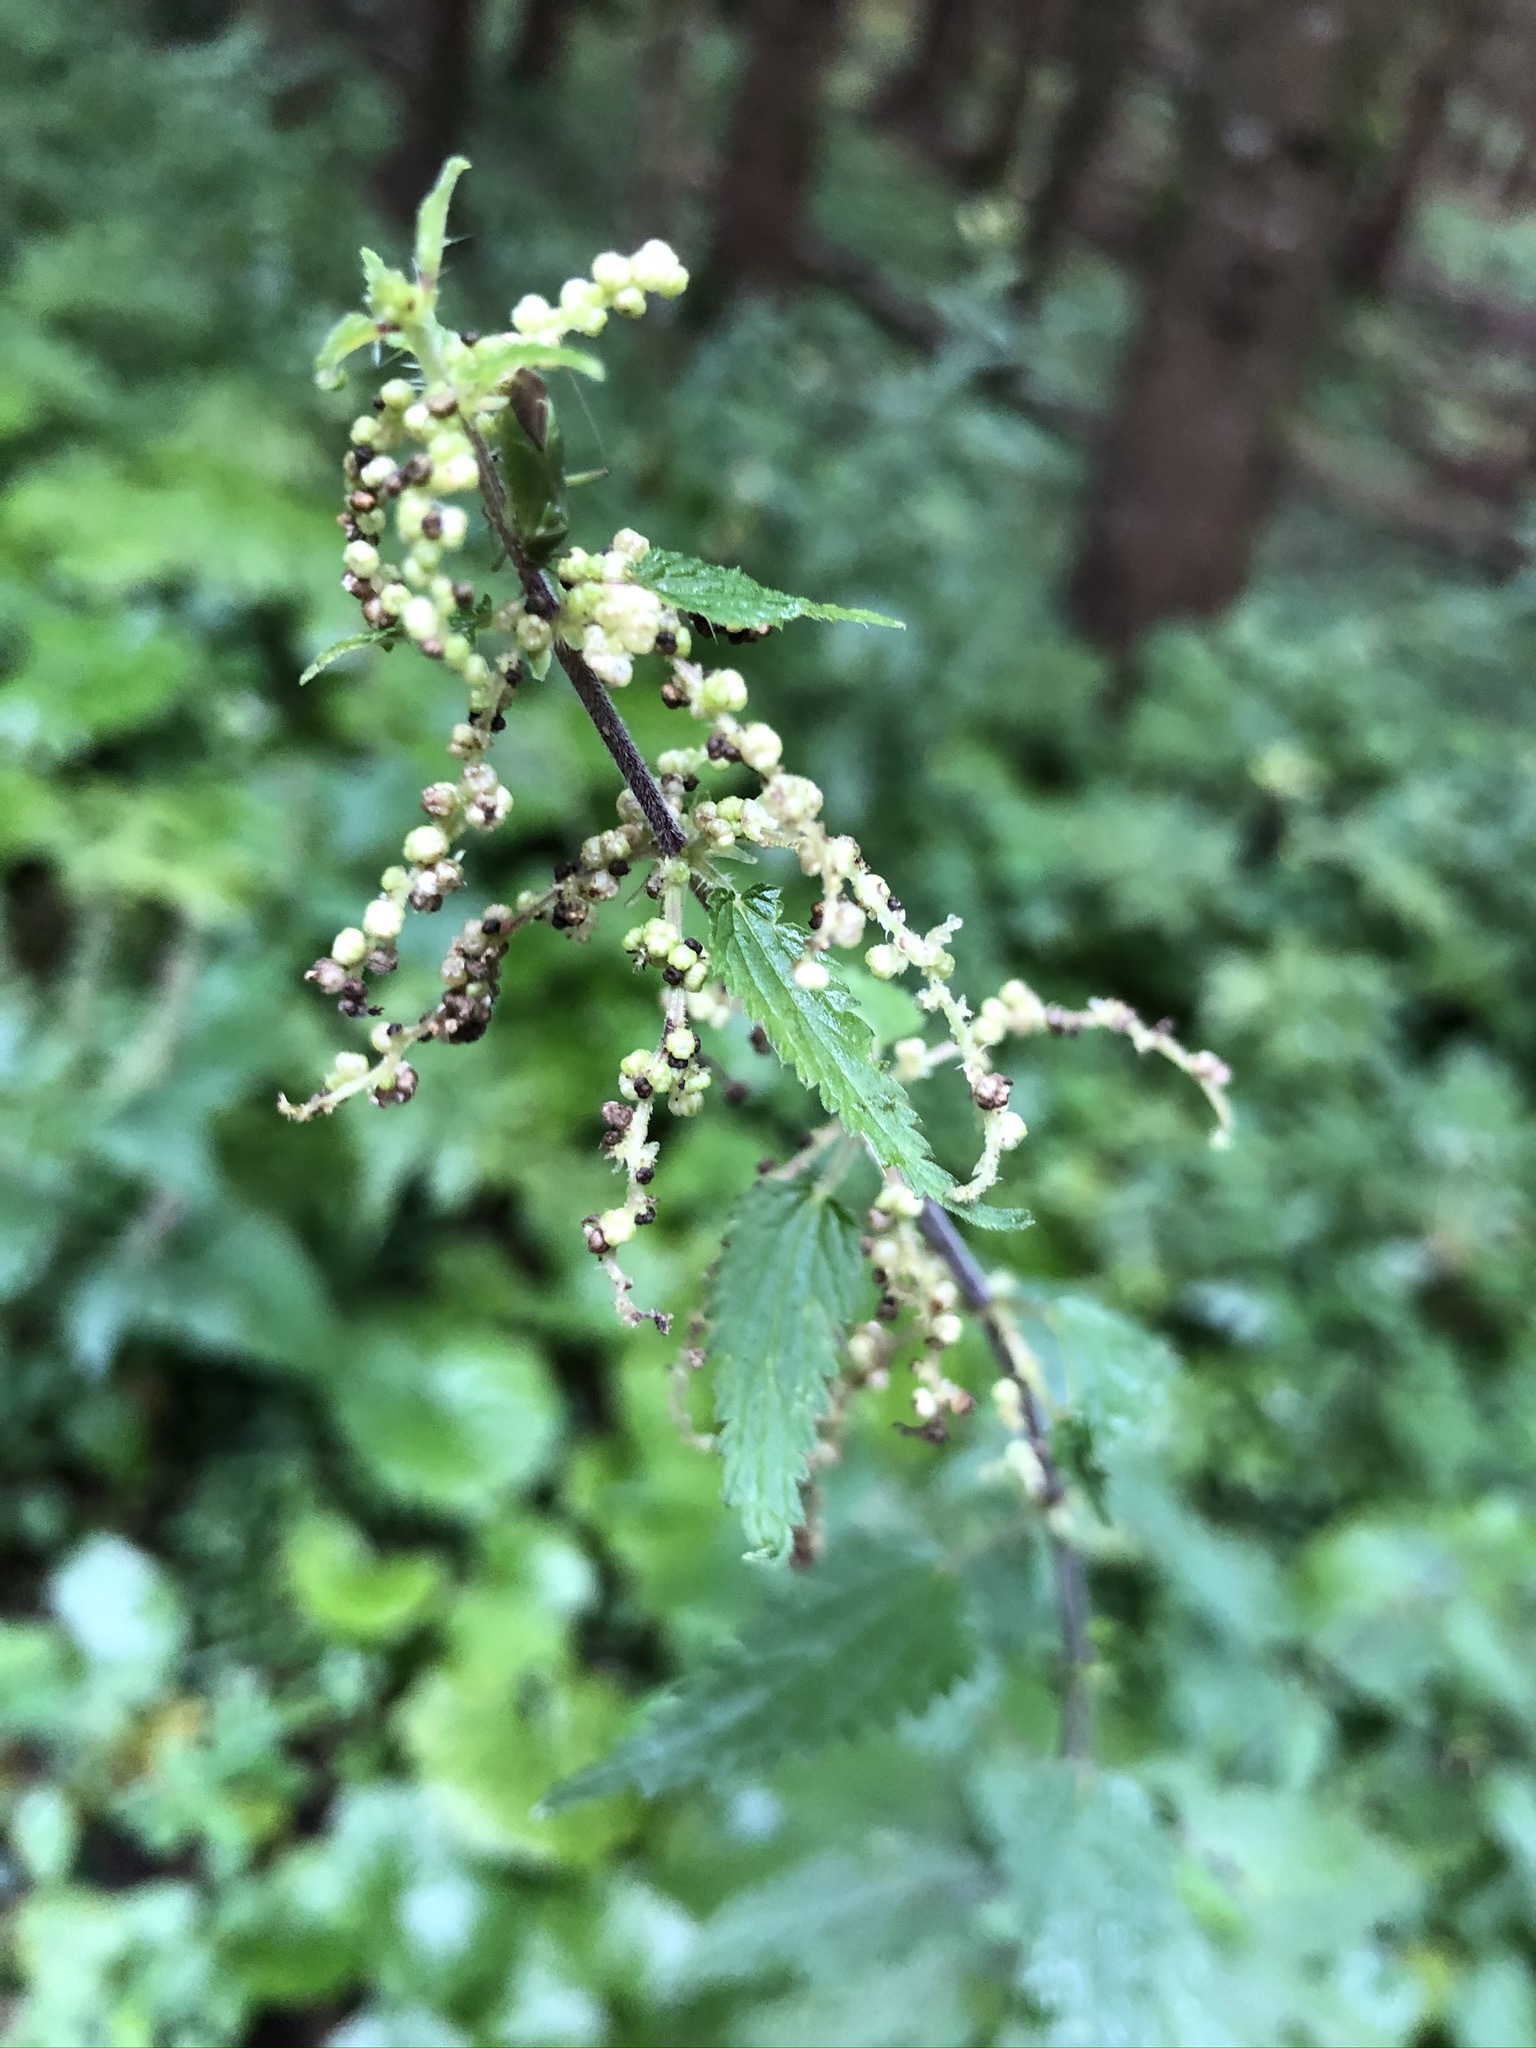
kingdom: Plantae
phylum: Tracheophyta
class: Magnoliopsida
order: Rosales
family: Urticaceae
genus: Urtica
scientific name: Urtica dioica
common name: Common nettle
